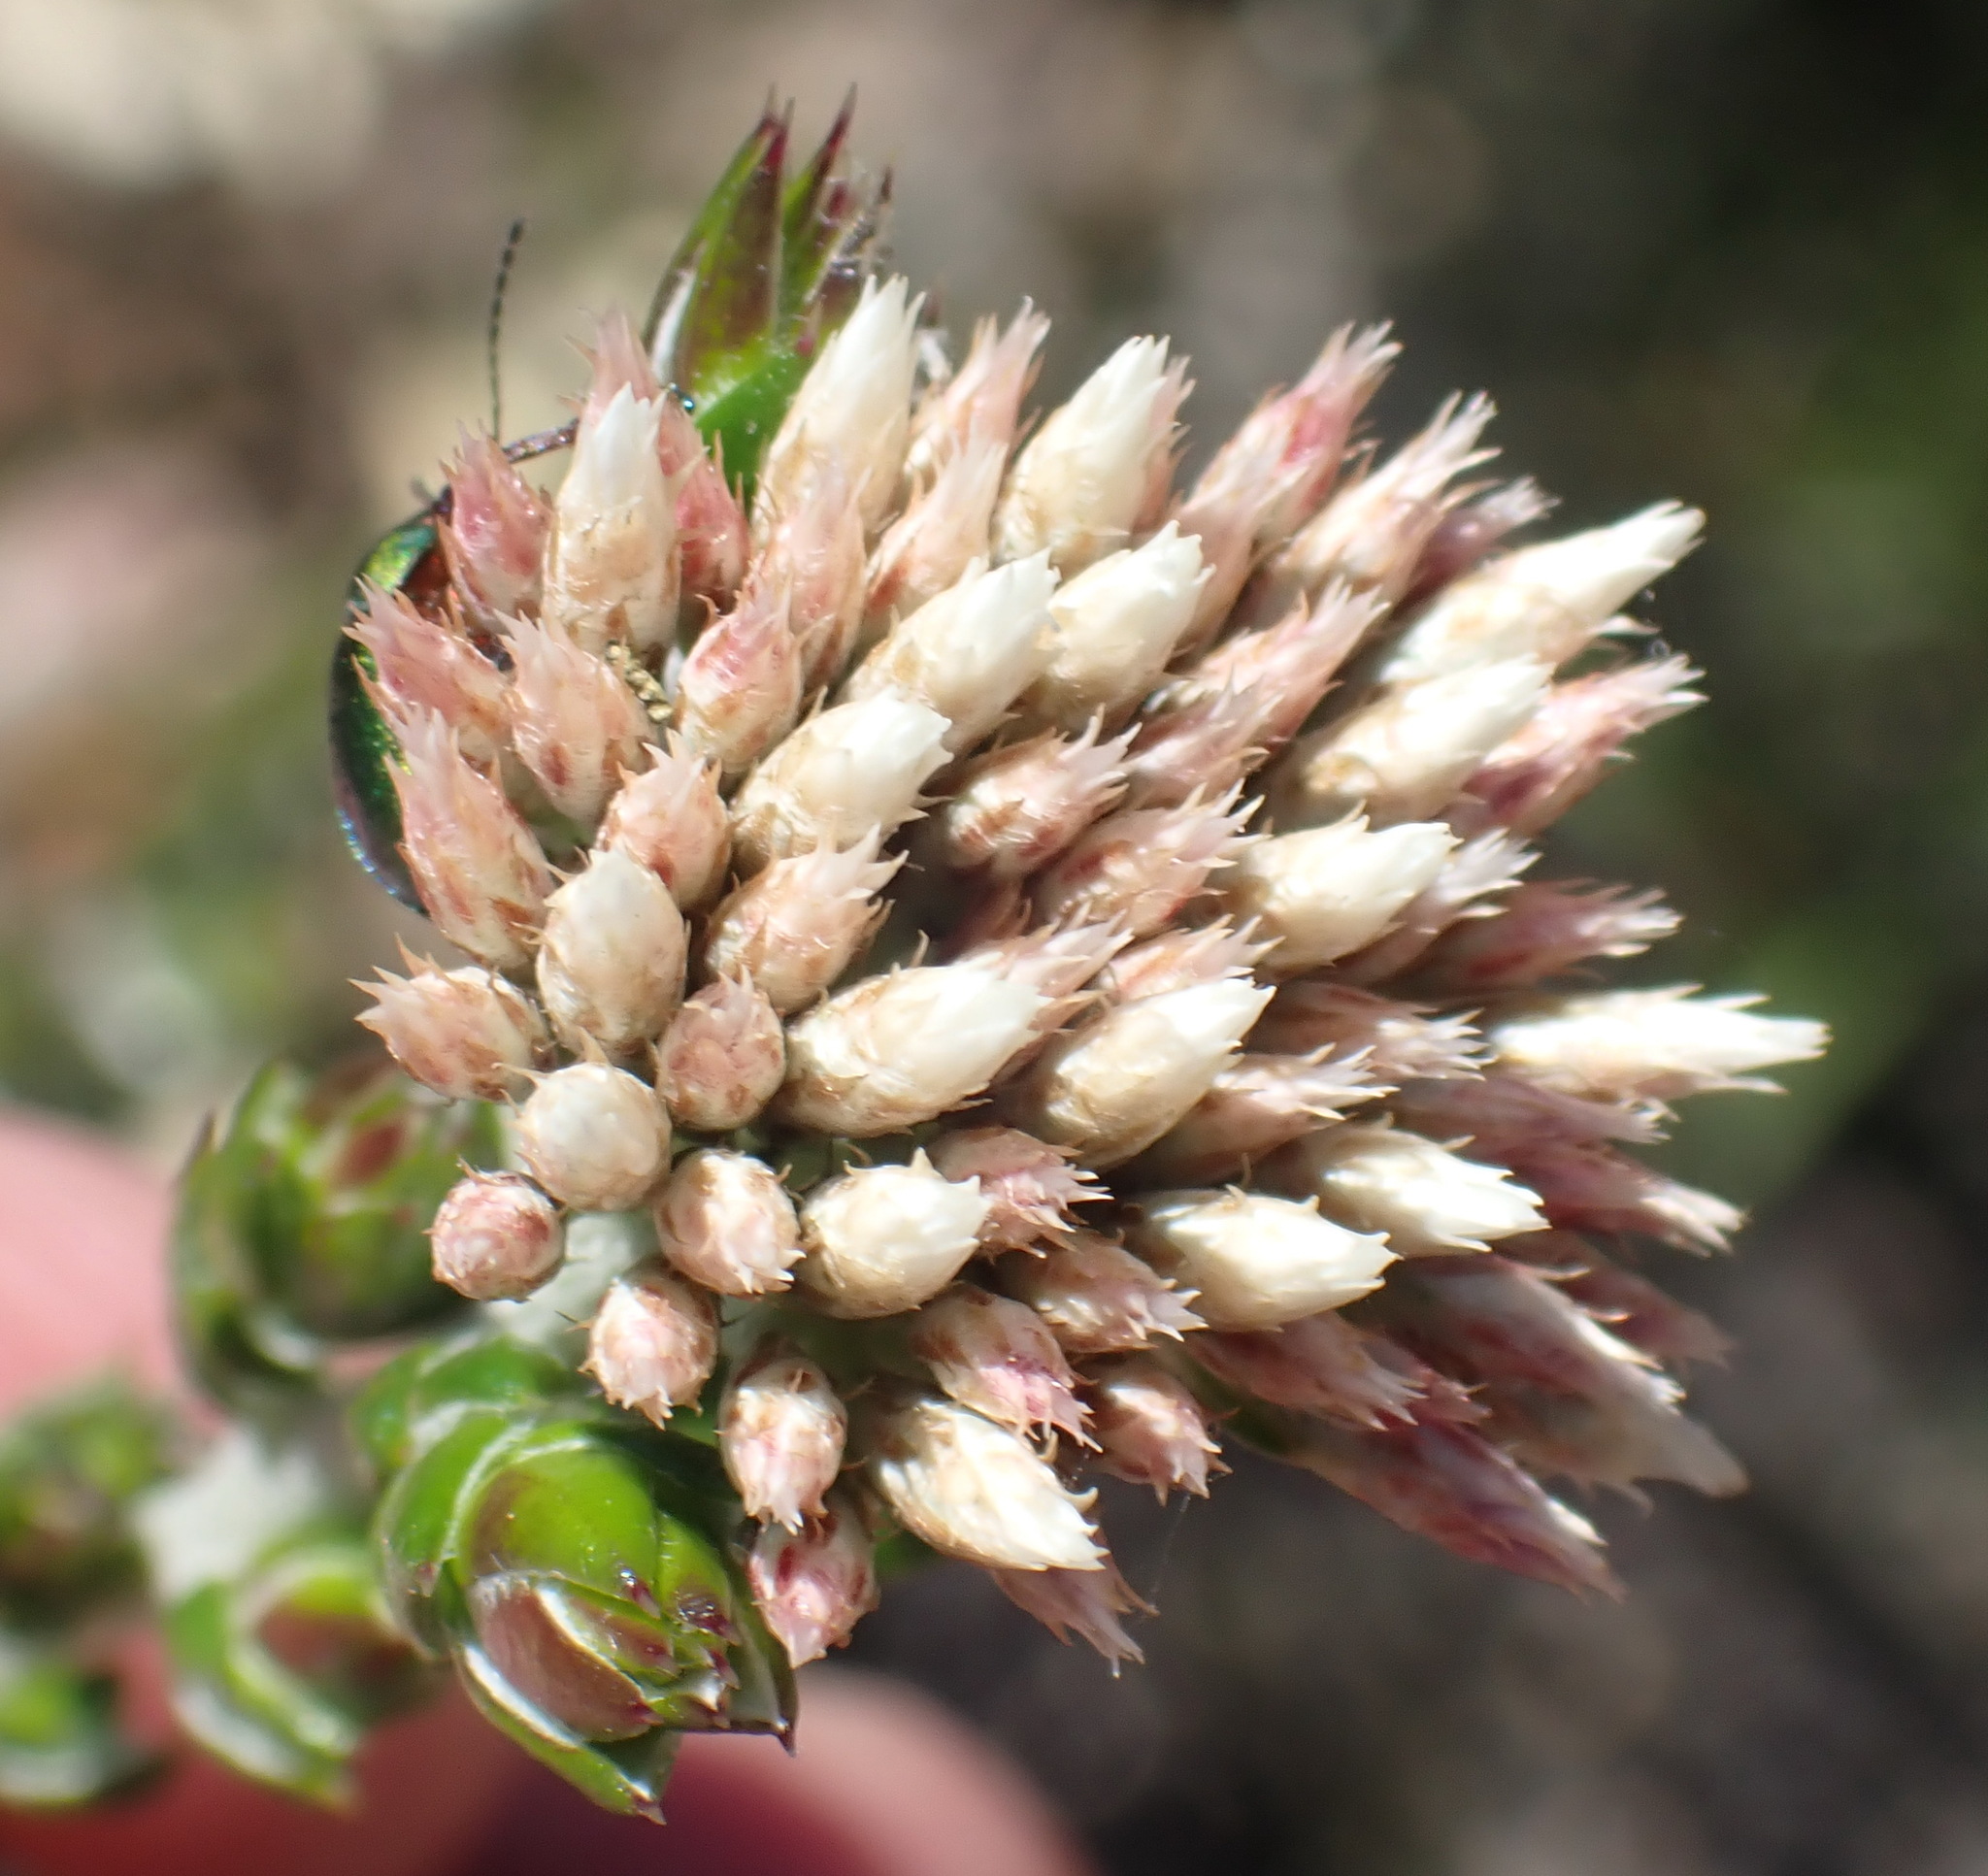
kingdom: Plantae
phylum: Tracheophyta
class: Magnoliopsida
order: Asterales
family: Asteraceae
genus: Metalasia
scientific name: Metalasia pulcherrima
